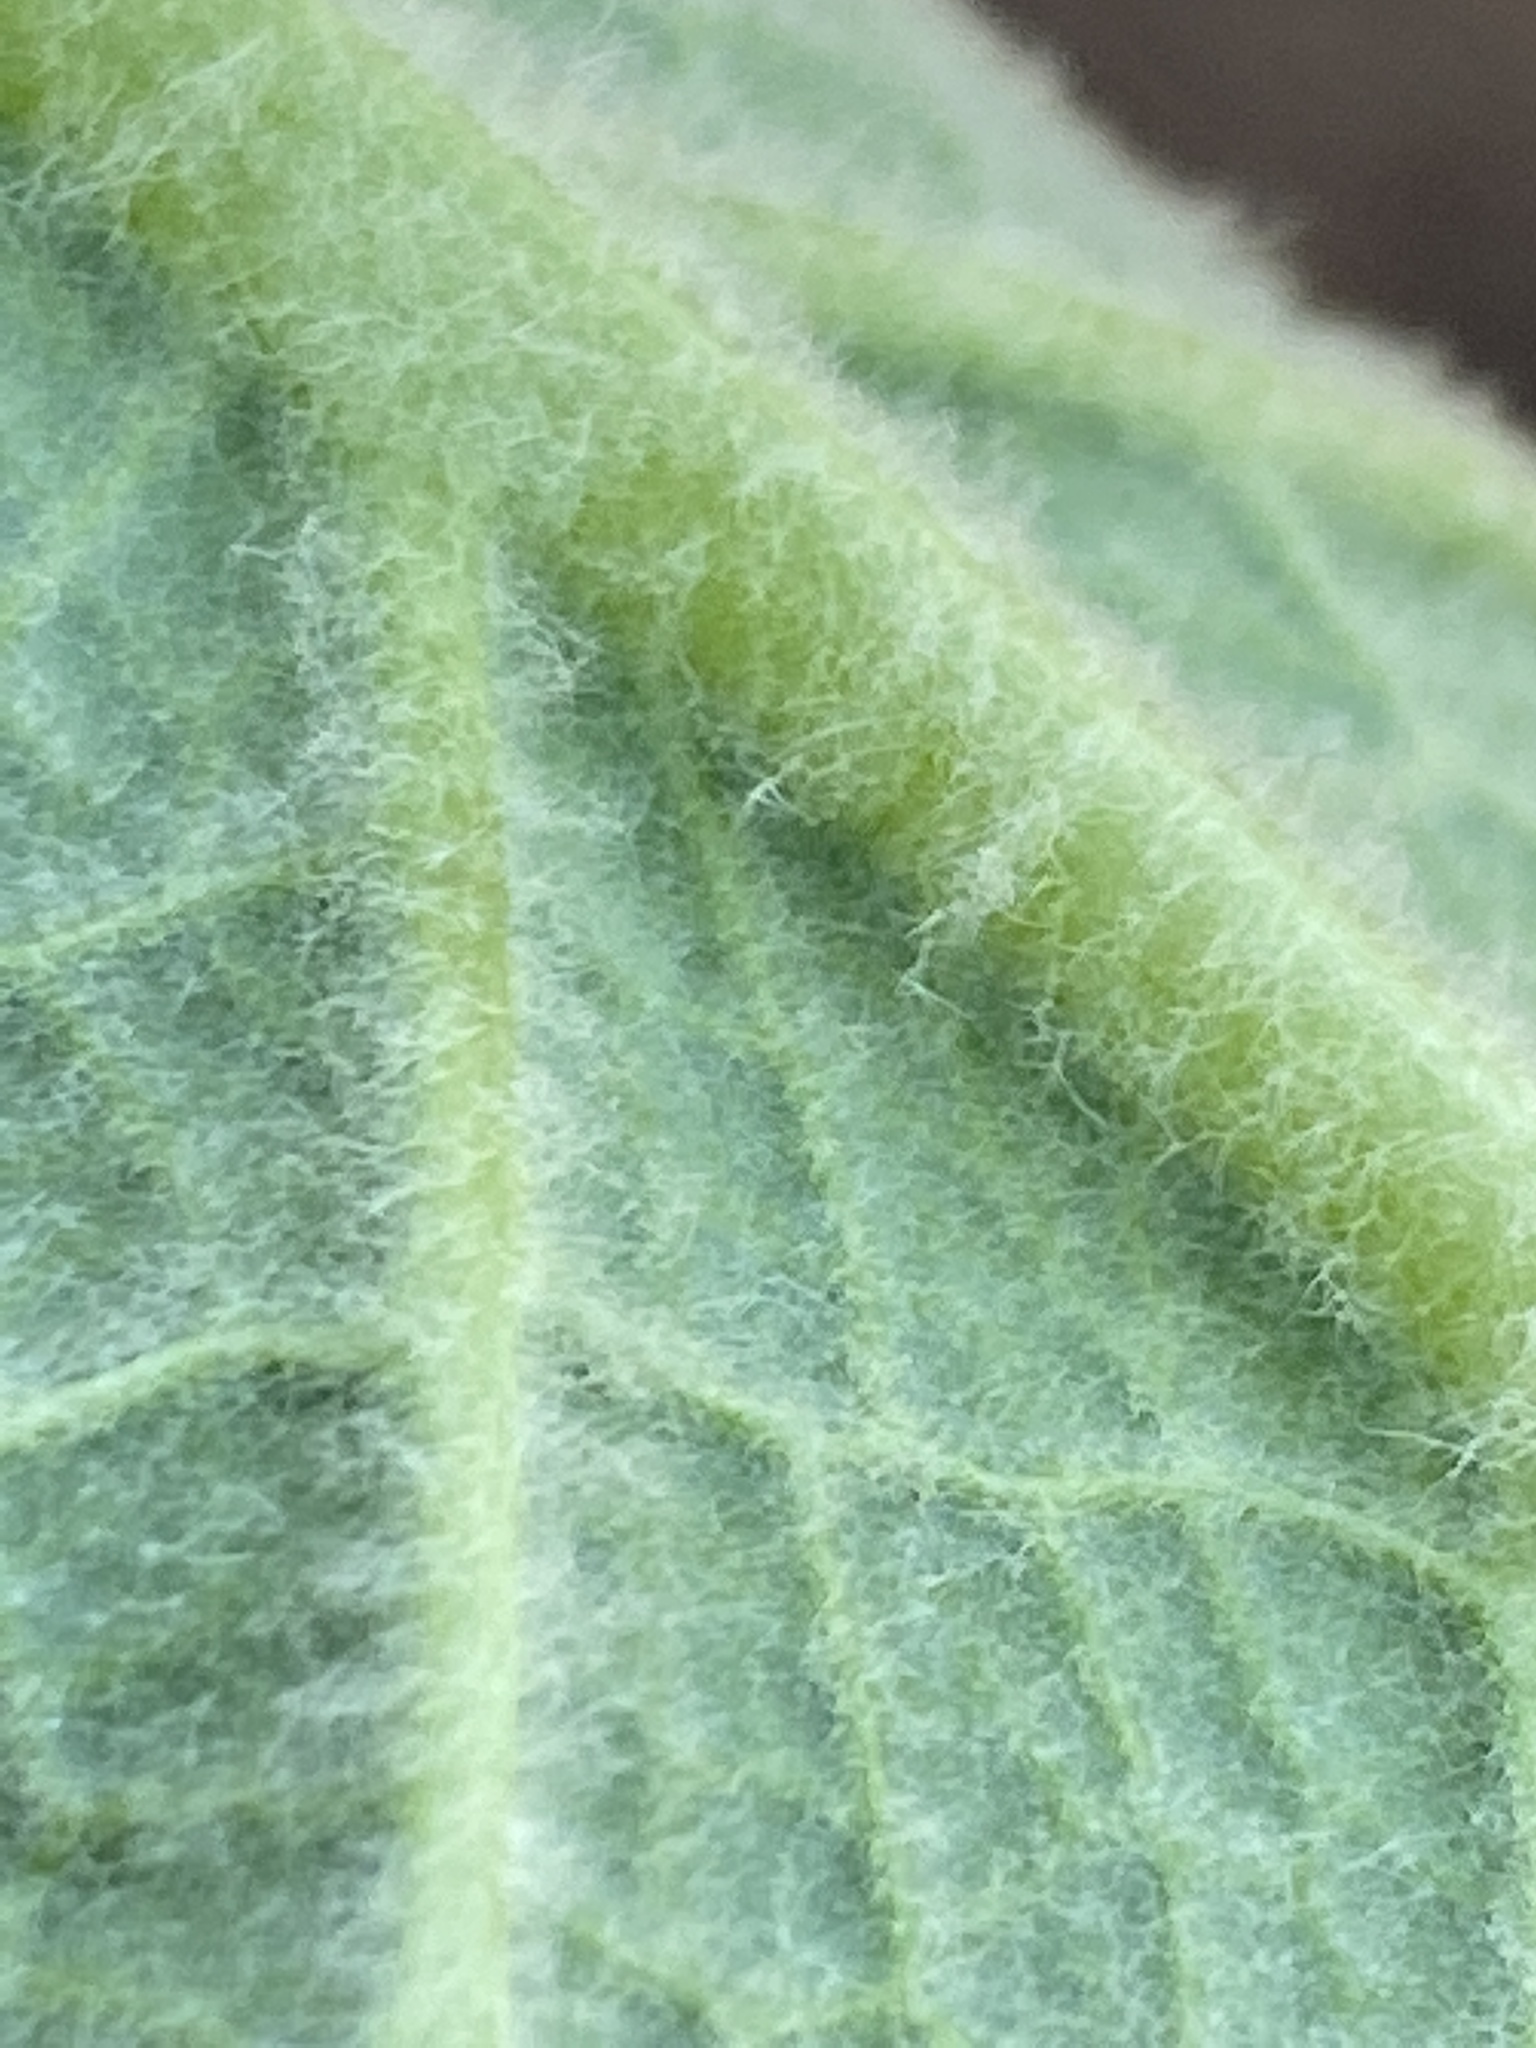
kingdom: Plantae
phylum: Tracheophyta
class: Magnoliopsida
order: Lamiales
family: Scrophulariaceae
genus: Verbascum
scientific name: Verbascum thapsus
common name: Common mullein
